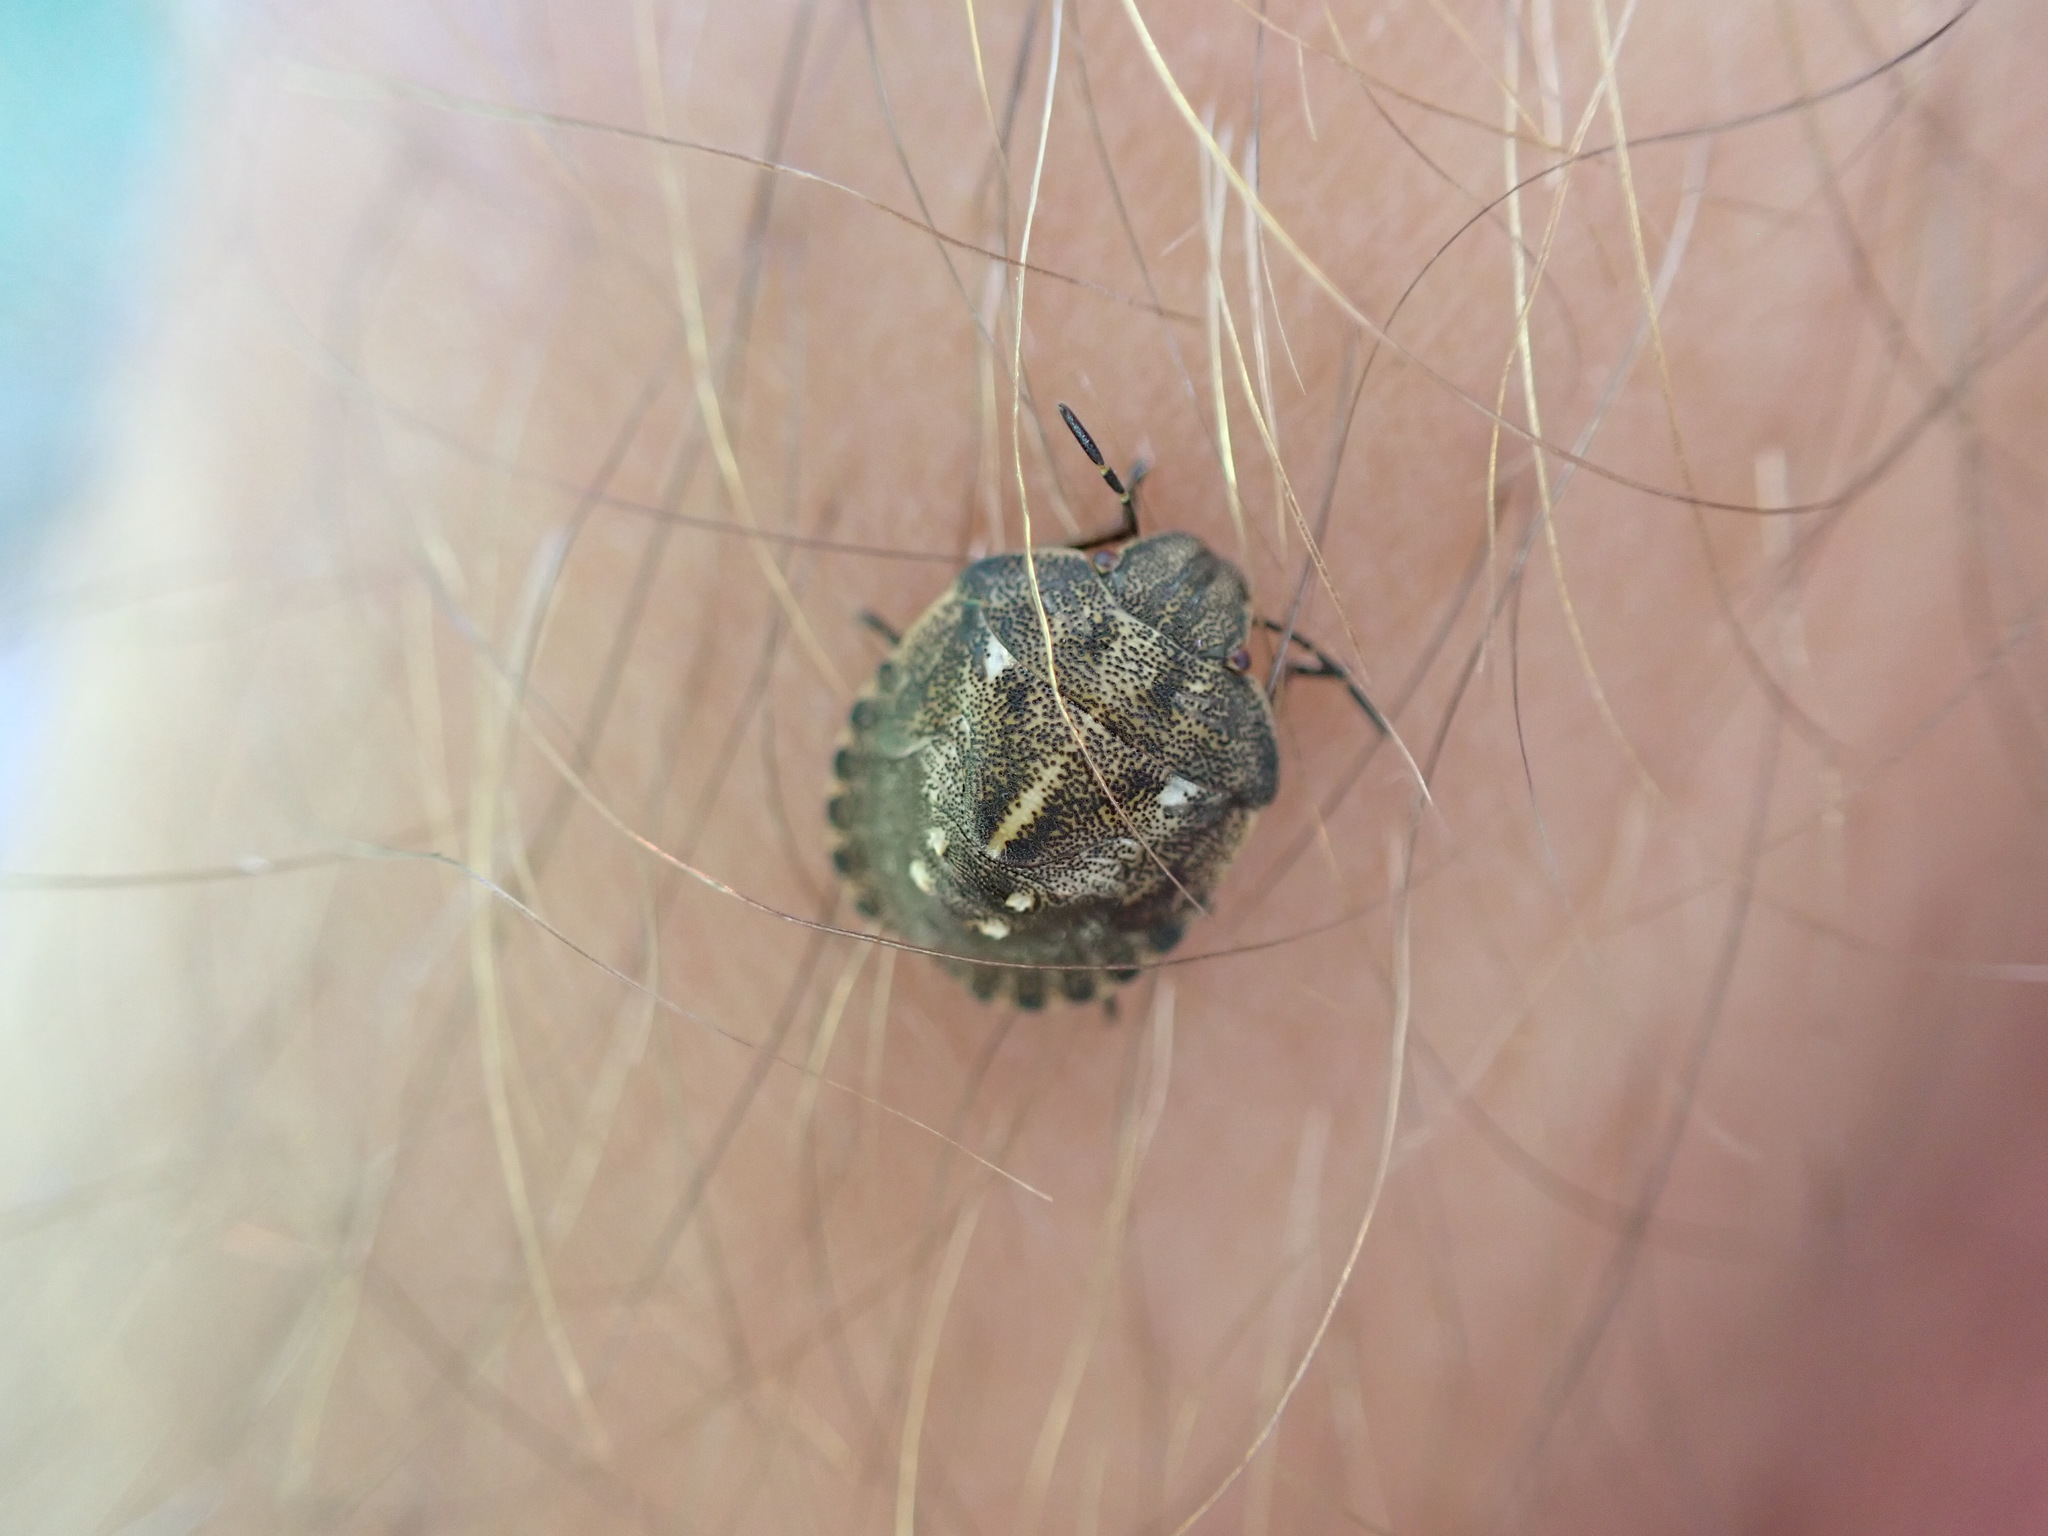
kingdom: Animalia
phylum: Arthropoda
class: Insecta
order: Hemiptera
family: Scutelleridae
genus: Eurygaster
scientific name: Eurygaster testudinaria
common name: Tortoise bug
